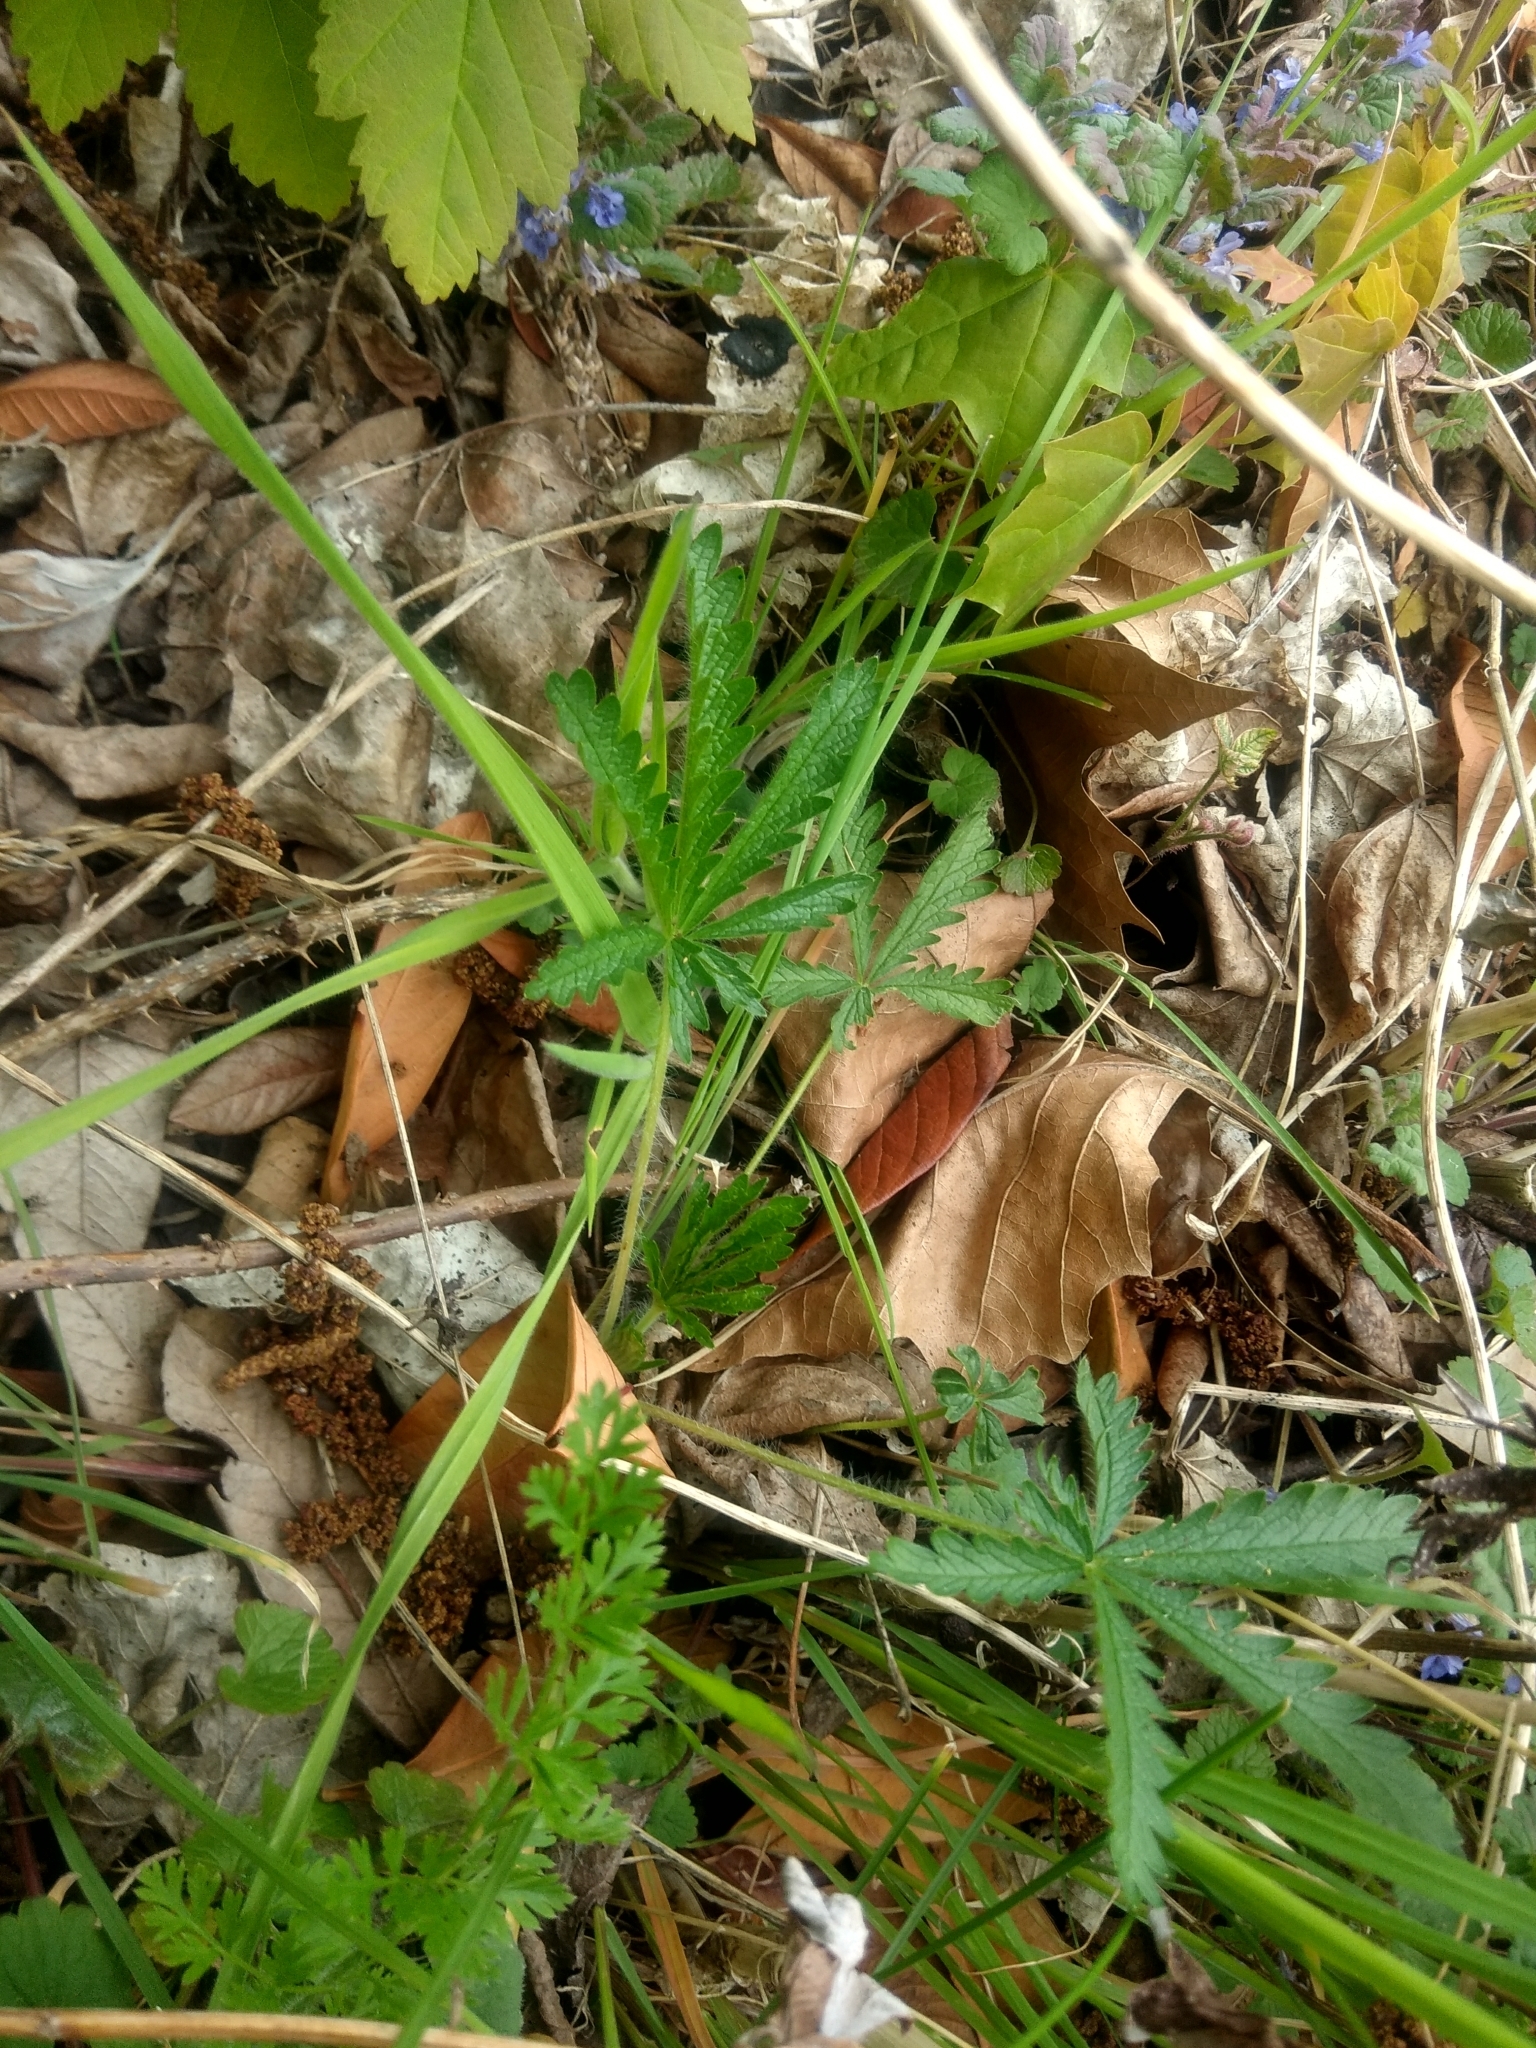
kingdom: Plantae
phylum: Tracheophyta
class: Magnoliopsida
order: Rosales
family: Rosaceae
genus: Potentilla
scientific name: Potentilla recta
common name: Sulphur cinquefoil
